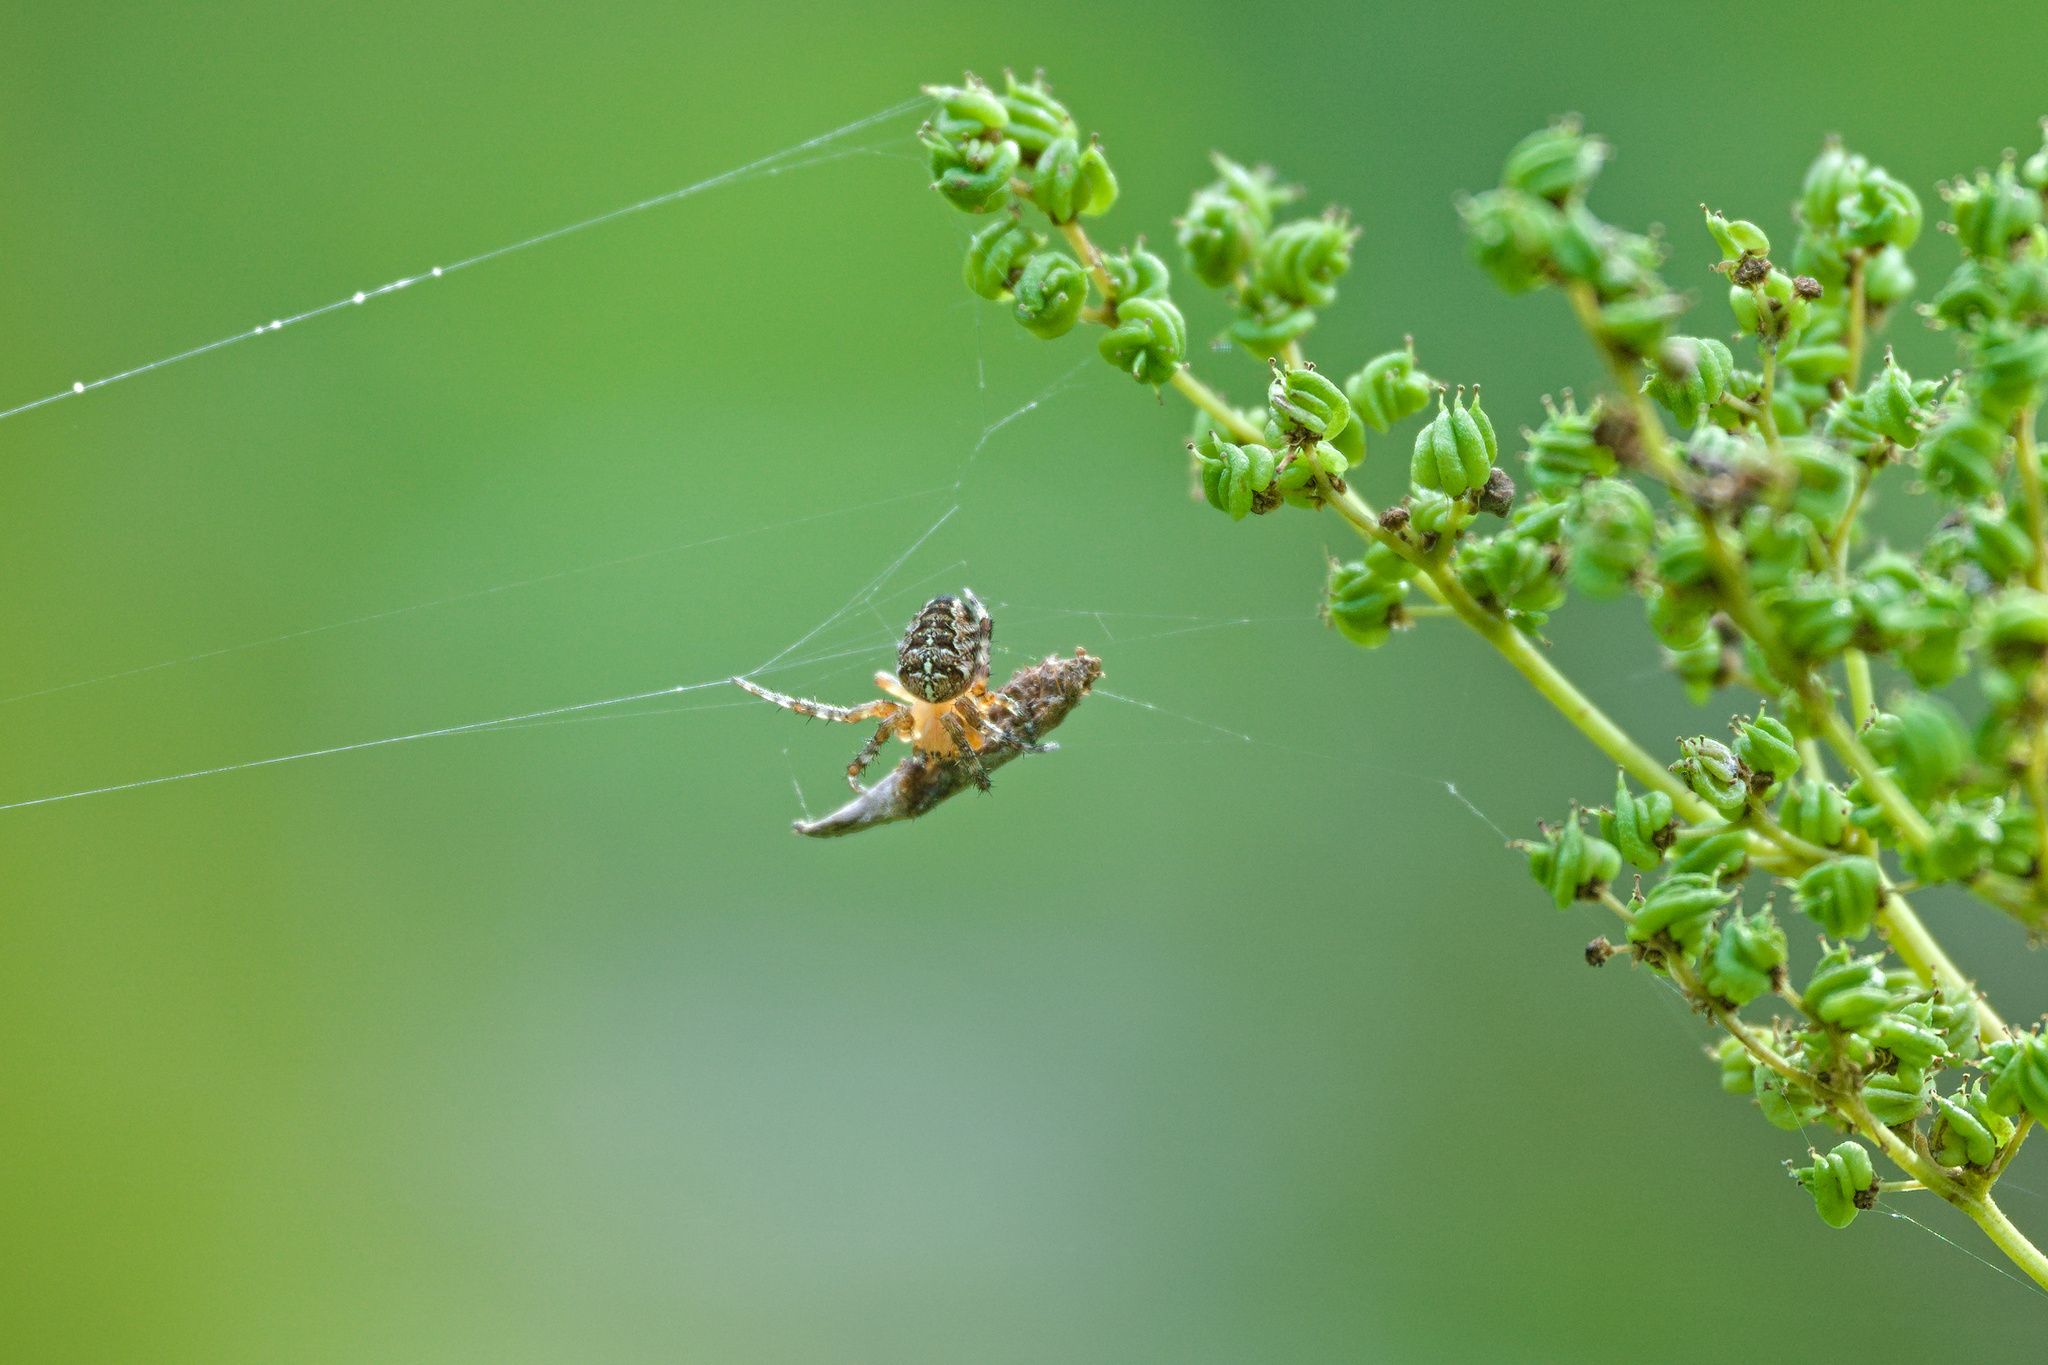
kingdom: Animalia
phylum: Arthropoda
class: Arachnida
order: Araneae
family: Araneidae
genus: Araneus
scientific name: Araneus diadematus
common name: Cross orbweaver
